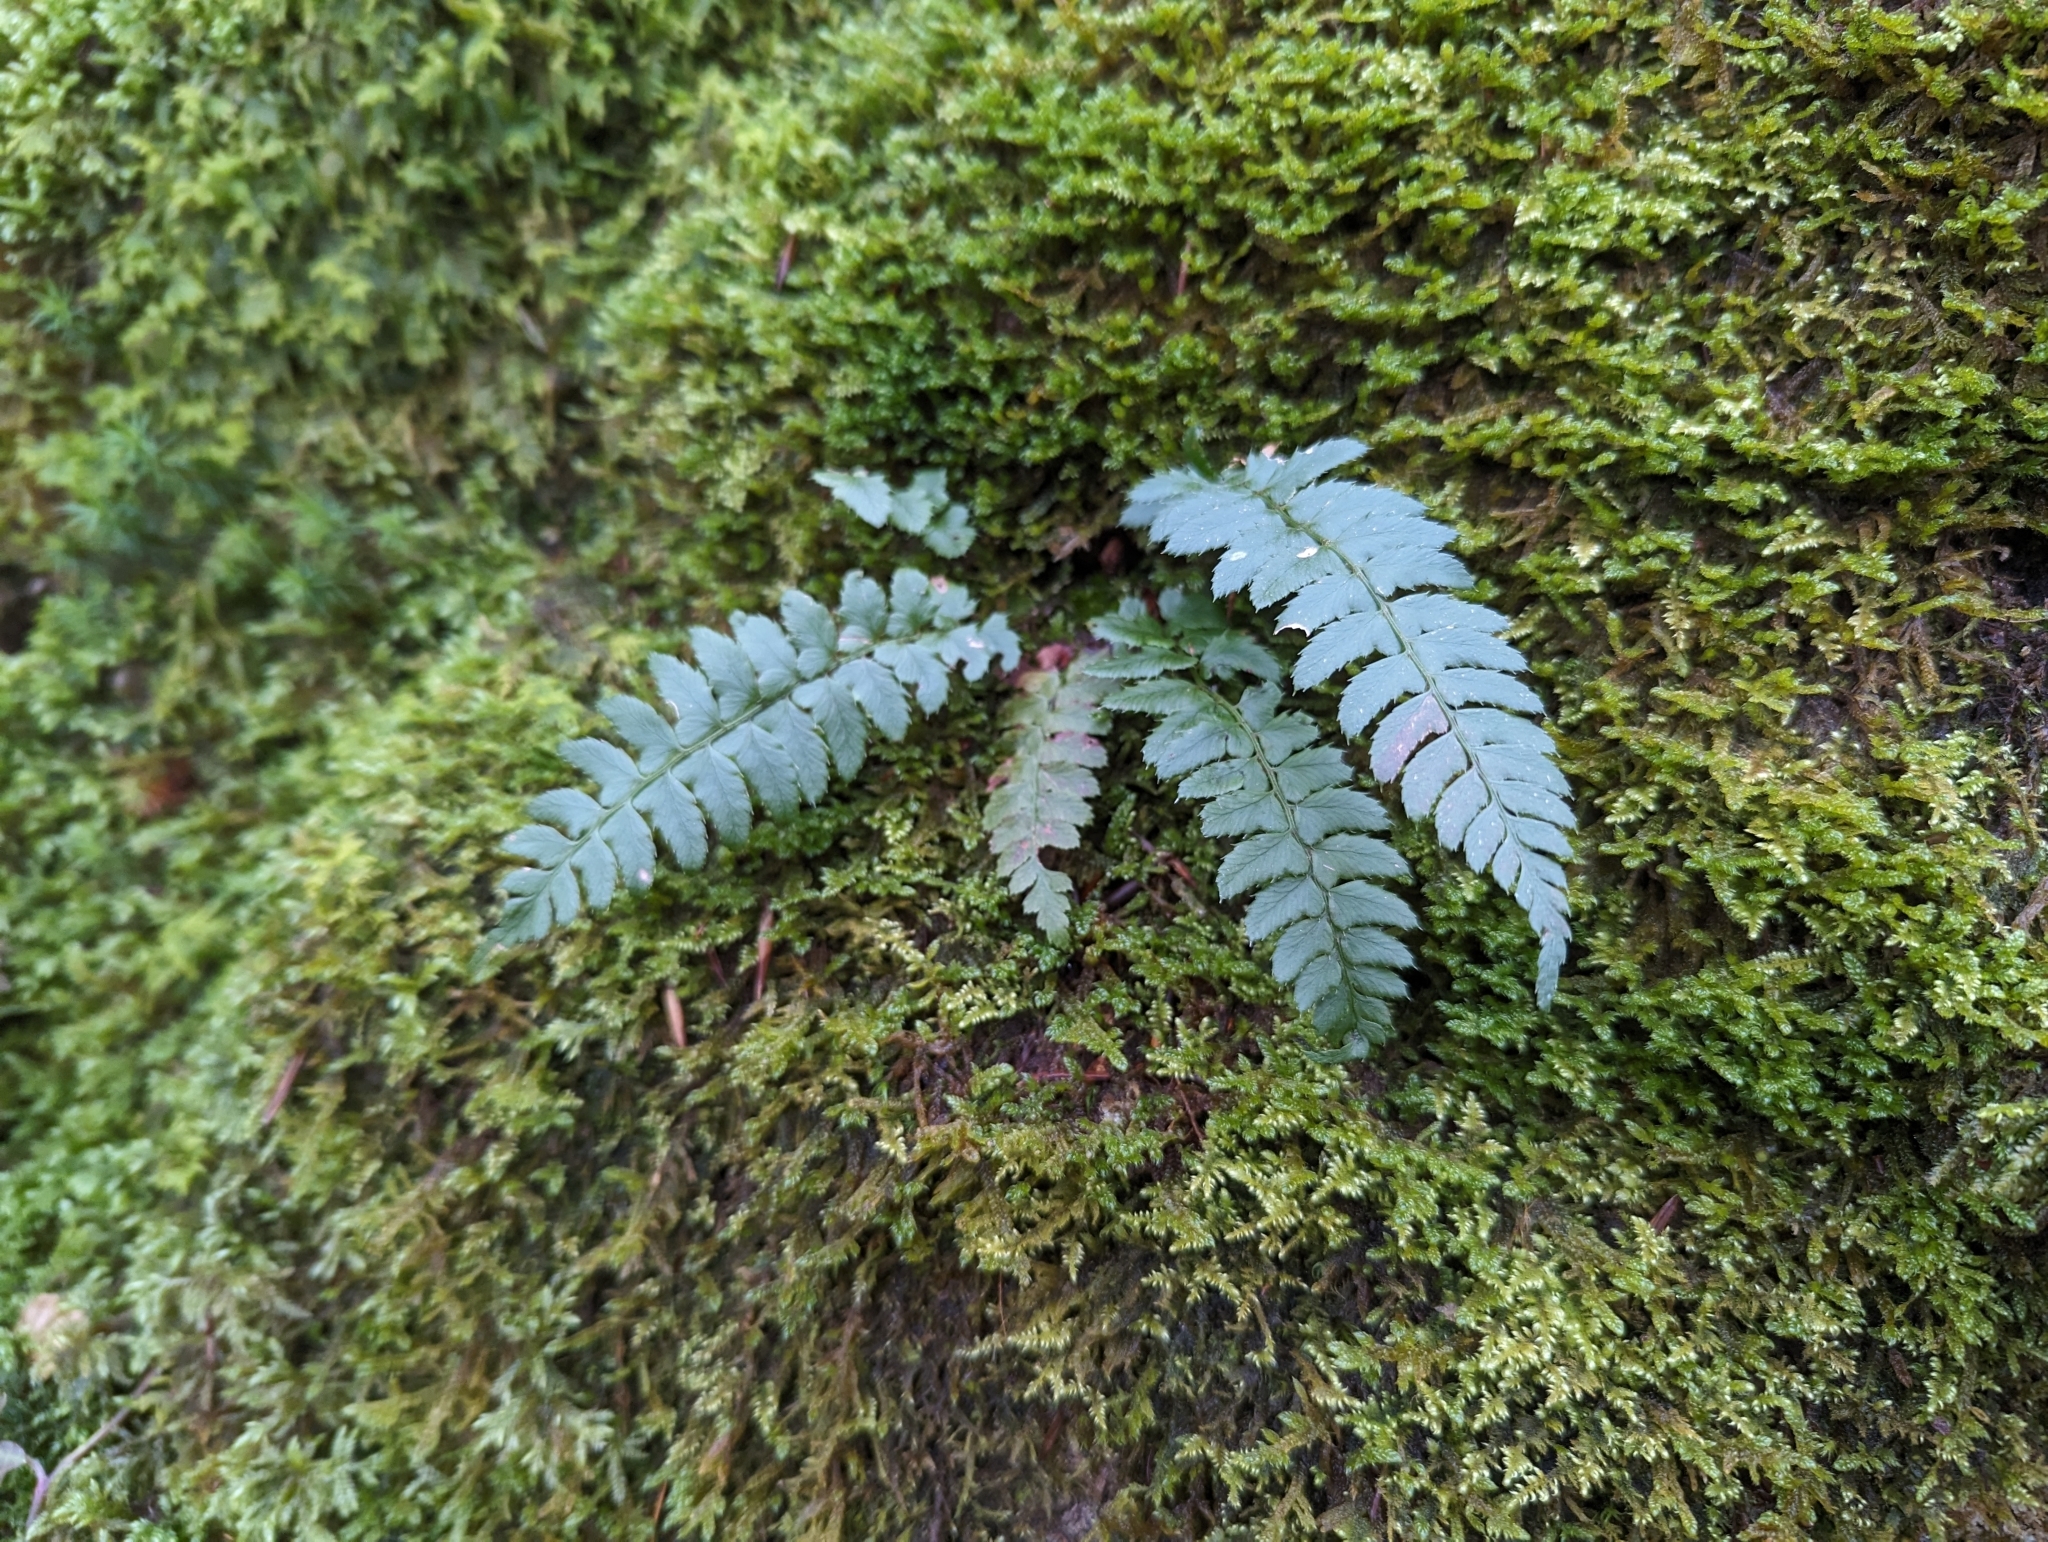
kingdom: Plantae
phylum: Tracheophyta
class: Polypodiopsida
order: Polypodiales
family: Dryopteridaceae
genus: Polystichum
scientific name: Polystichum aculeatum
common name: Hard shield-fern
